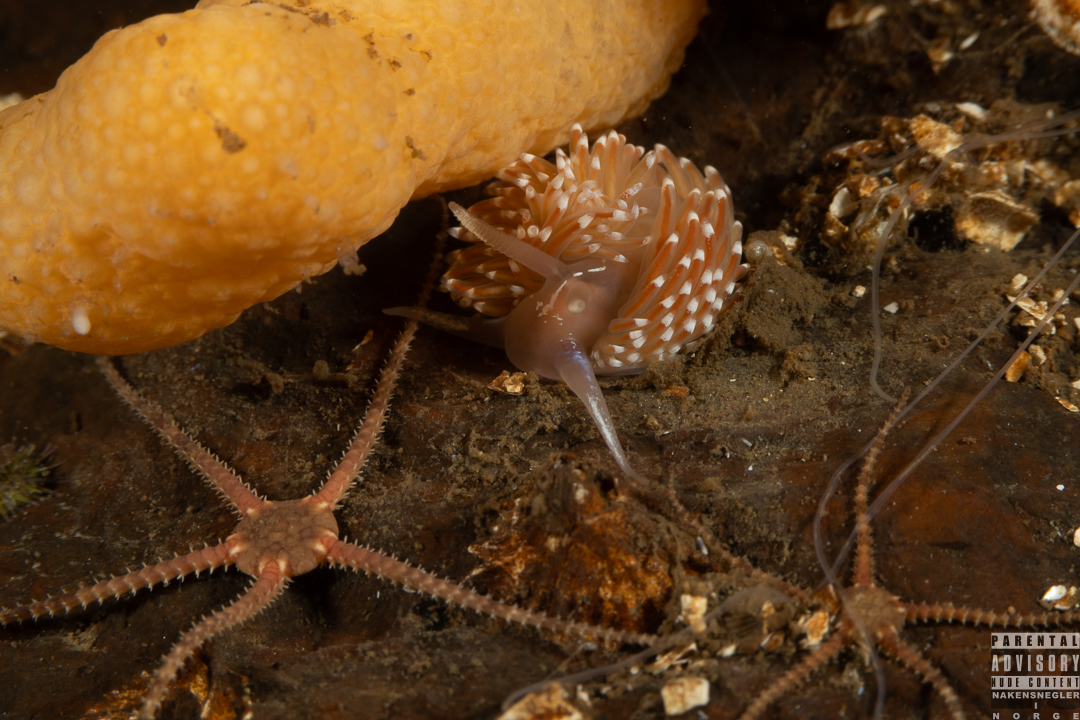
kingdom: Animalia
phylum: Mollusca
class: Gastropoda
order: Nudibranchia
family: Facelinidae
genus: Facelina
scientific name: Facelina bostoniensis
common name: Boston facelina
